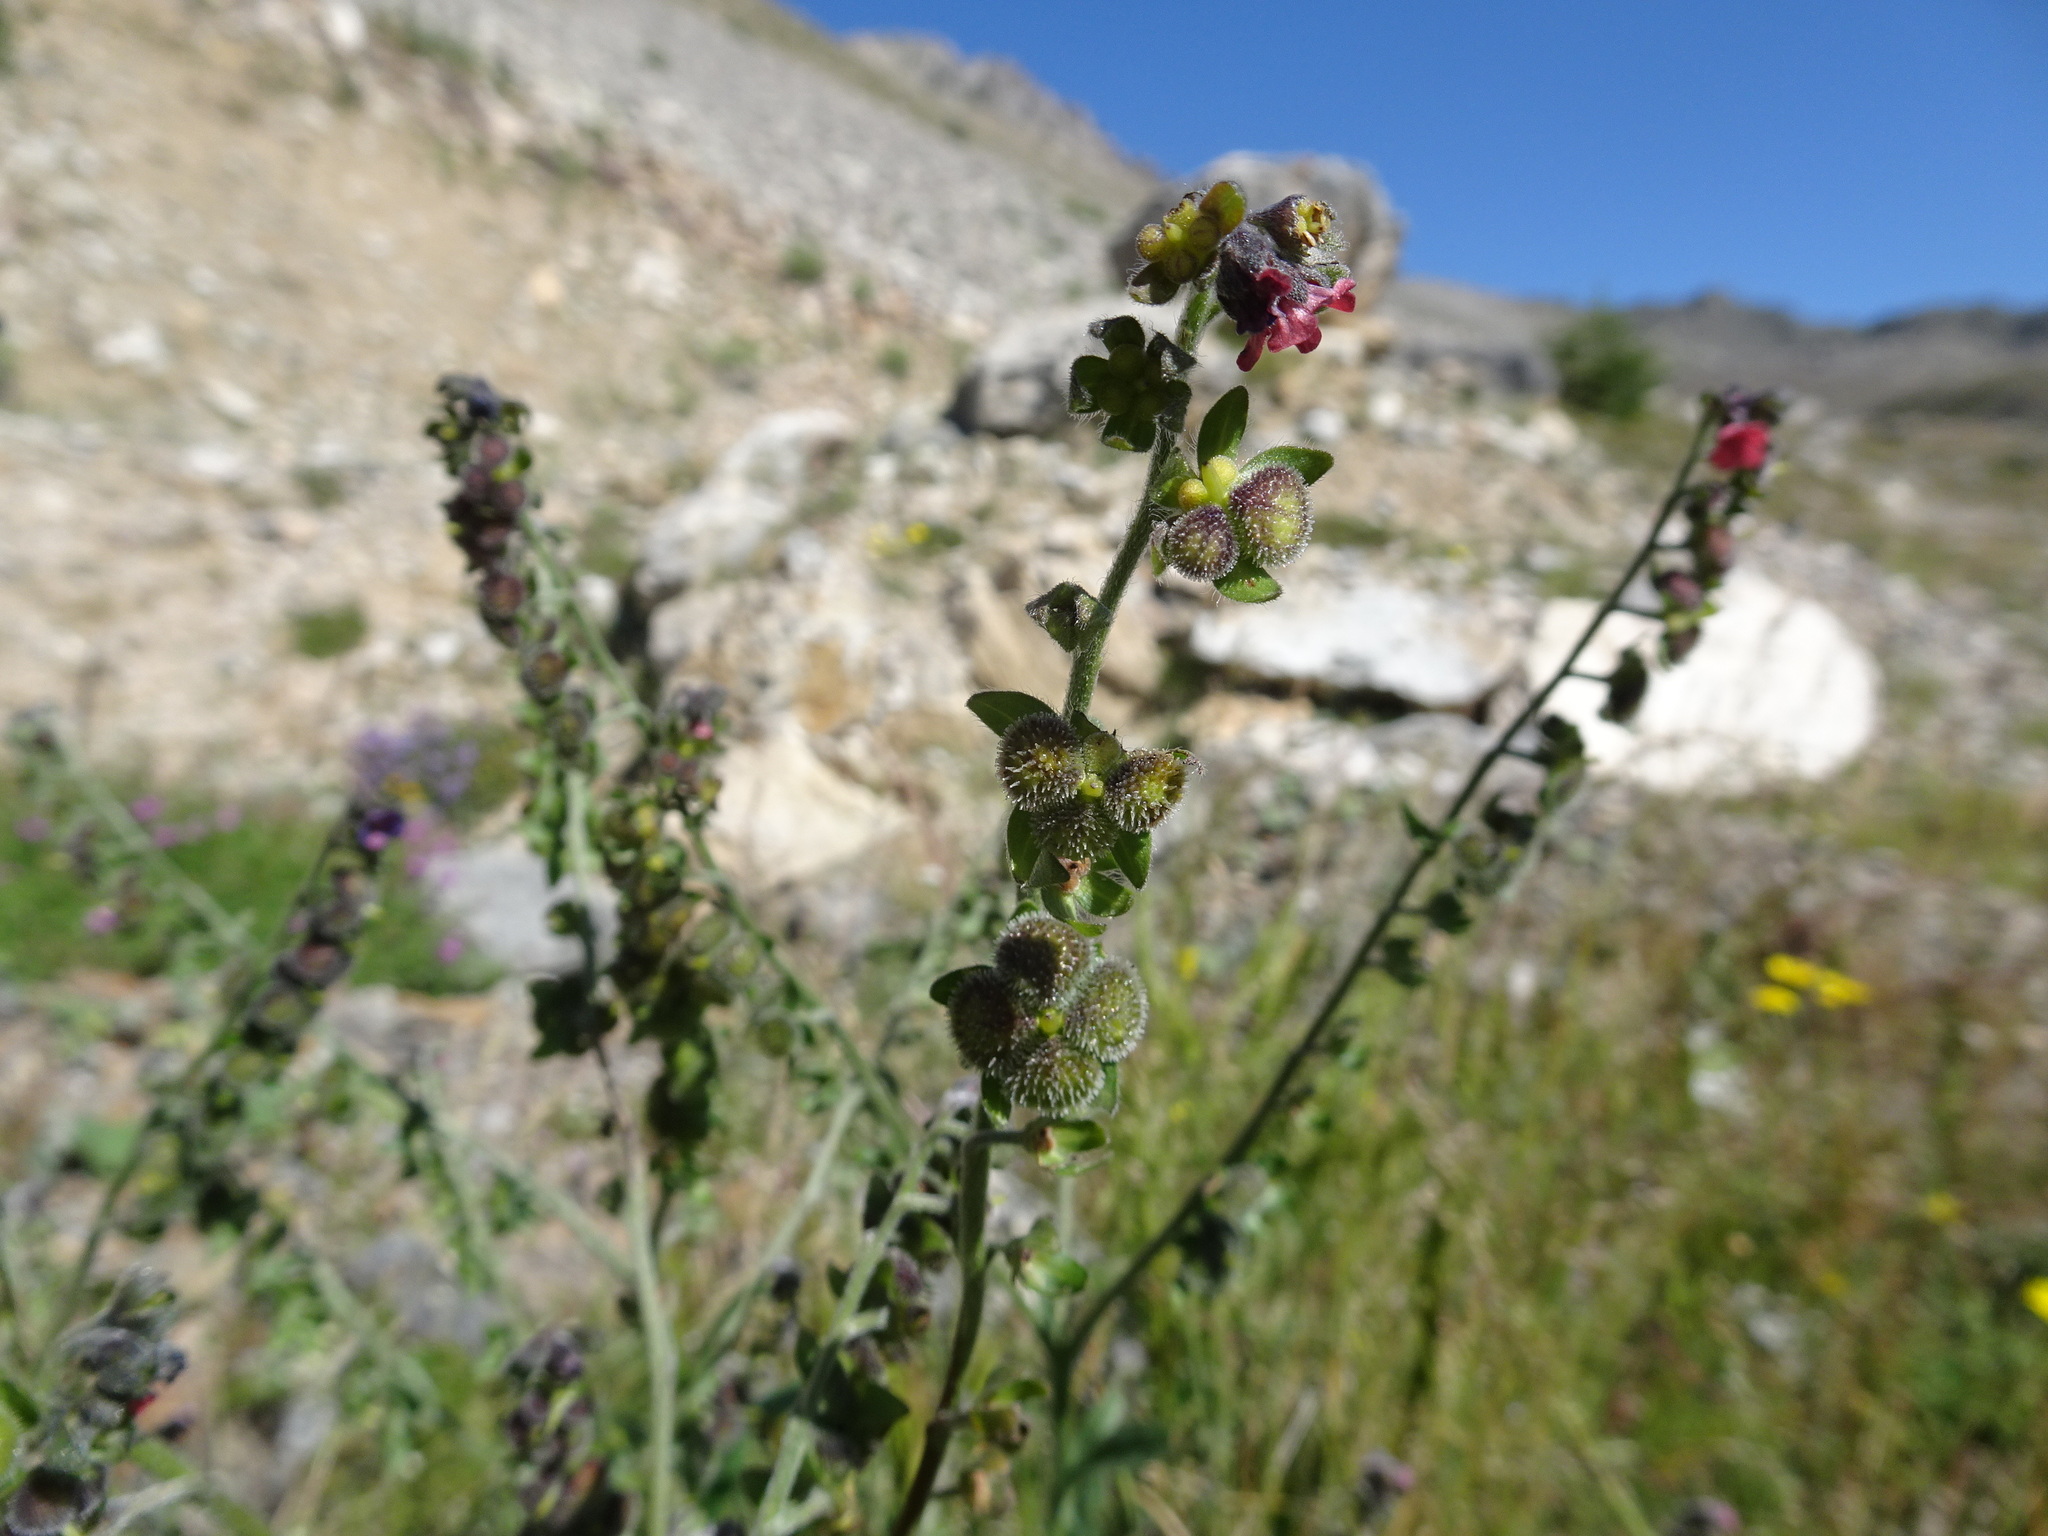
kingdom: Plantae
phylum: Tracheophyta
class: Magnoliopsida
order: Boraginales
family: Boraginaceae
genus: Cynoglossum
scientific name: Cynoglossum officinale
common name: Hound's-tongue
